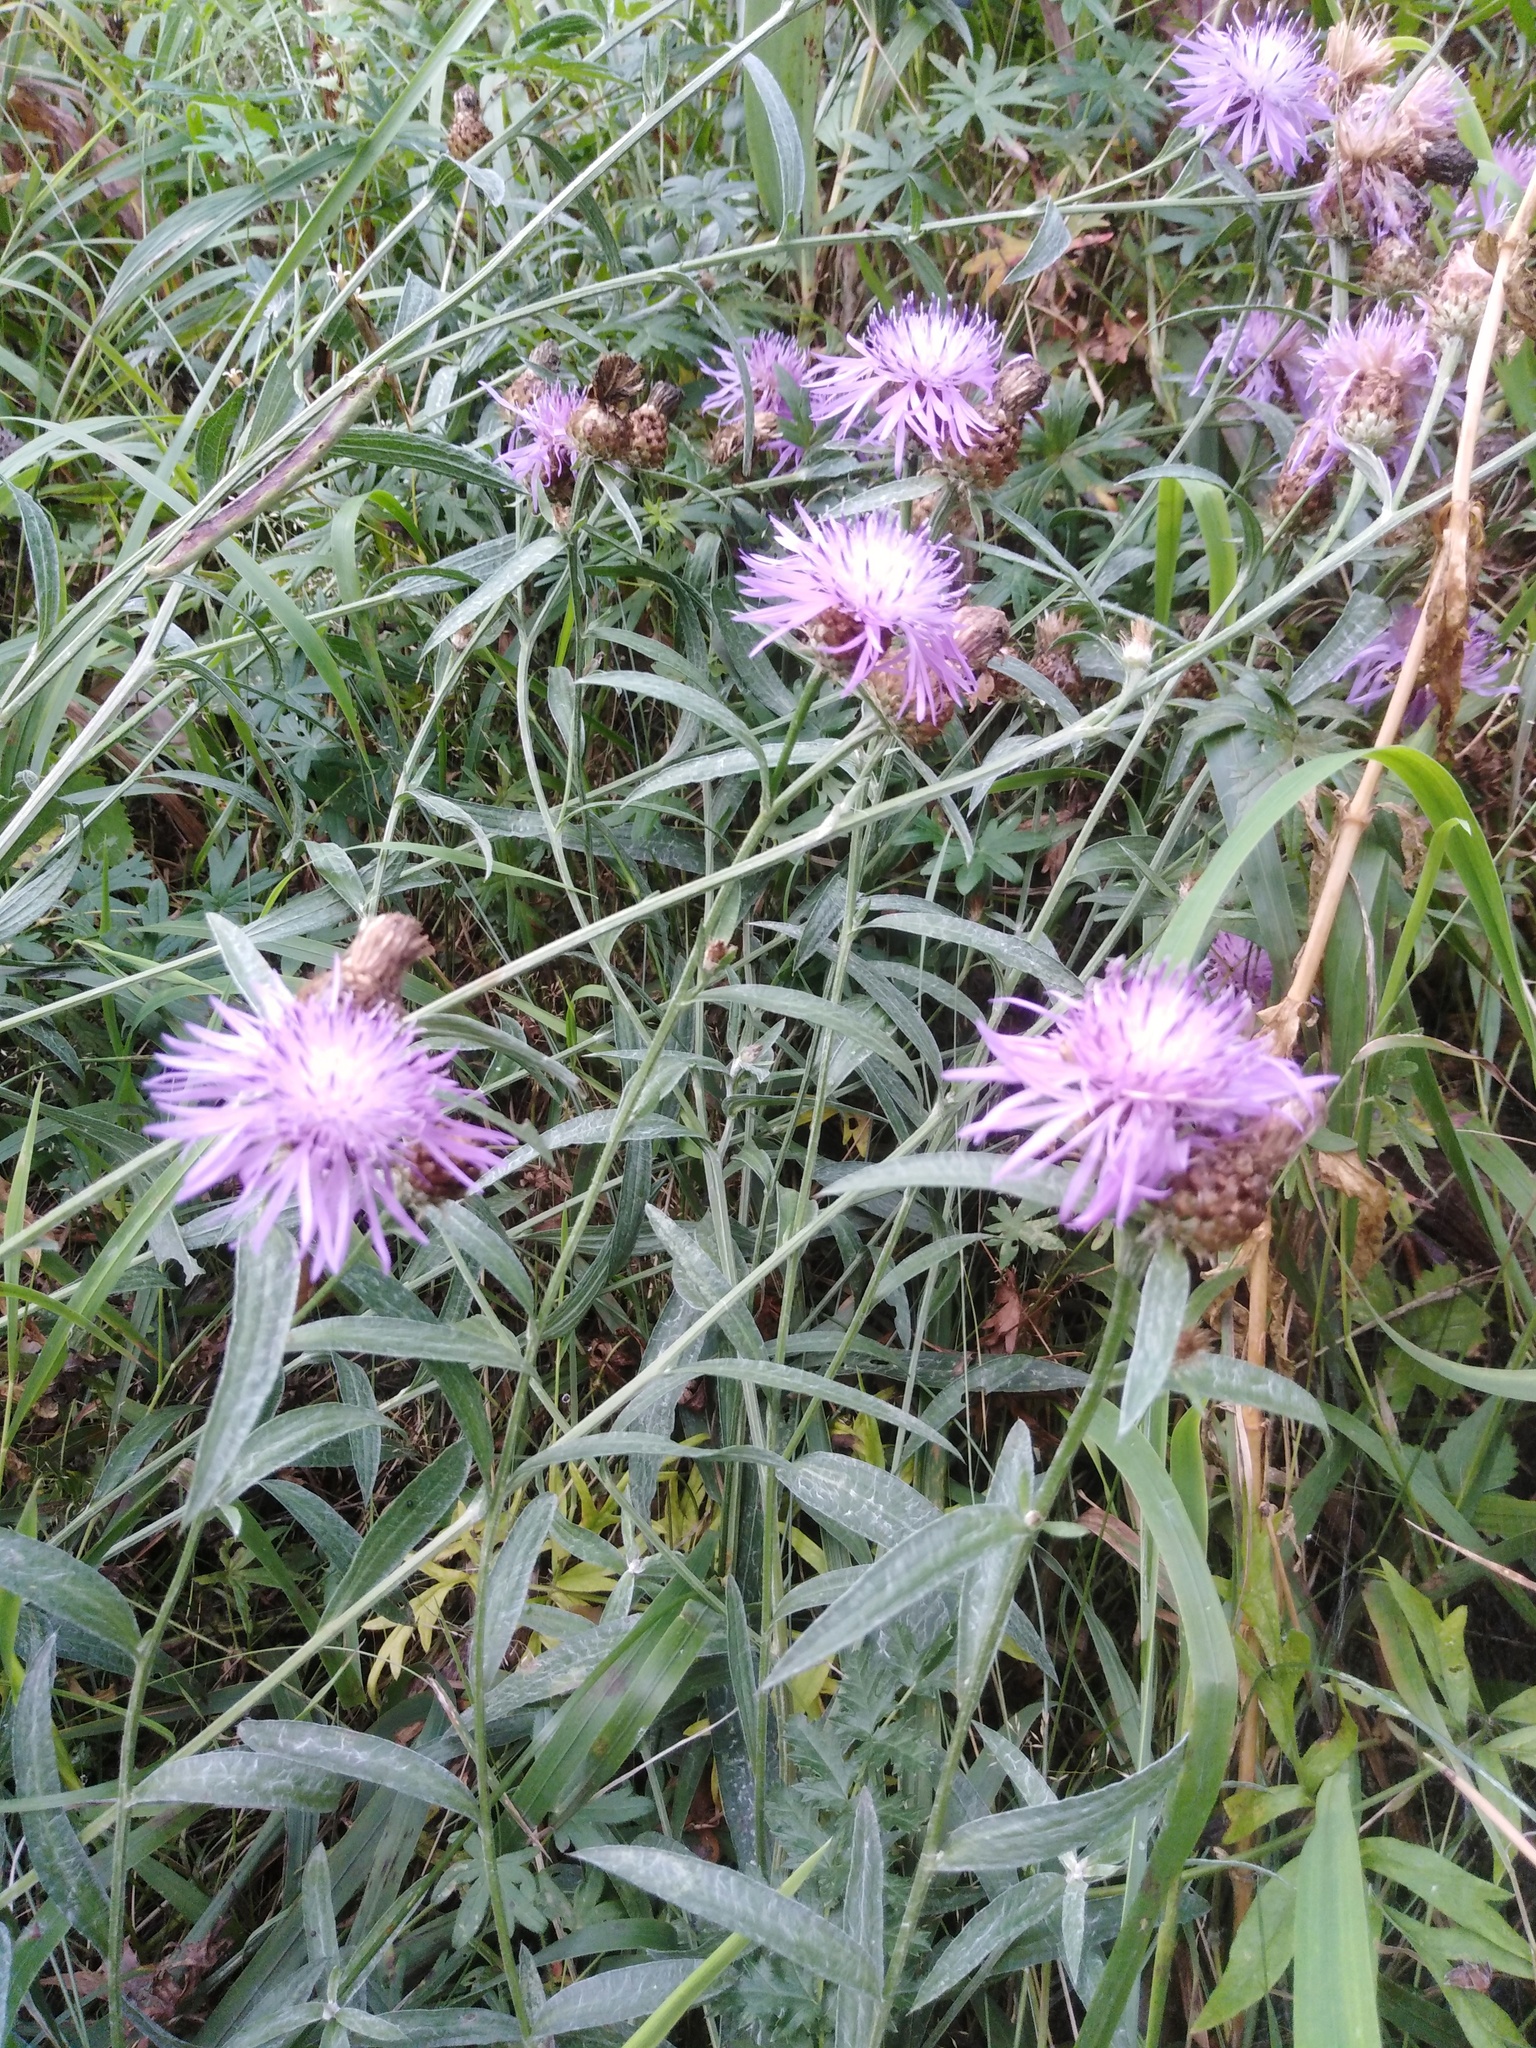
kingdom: Plantae
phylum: Tracheophyta
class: Magnoliopsida
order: Asterales
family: Asteraceae
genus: Centaurea
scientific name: Centaurea jacea
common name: Brown knapweed
